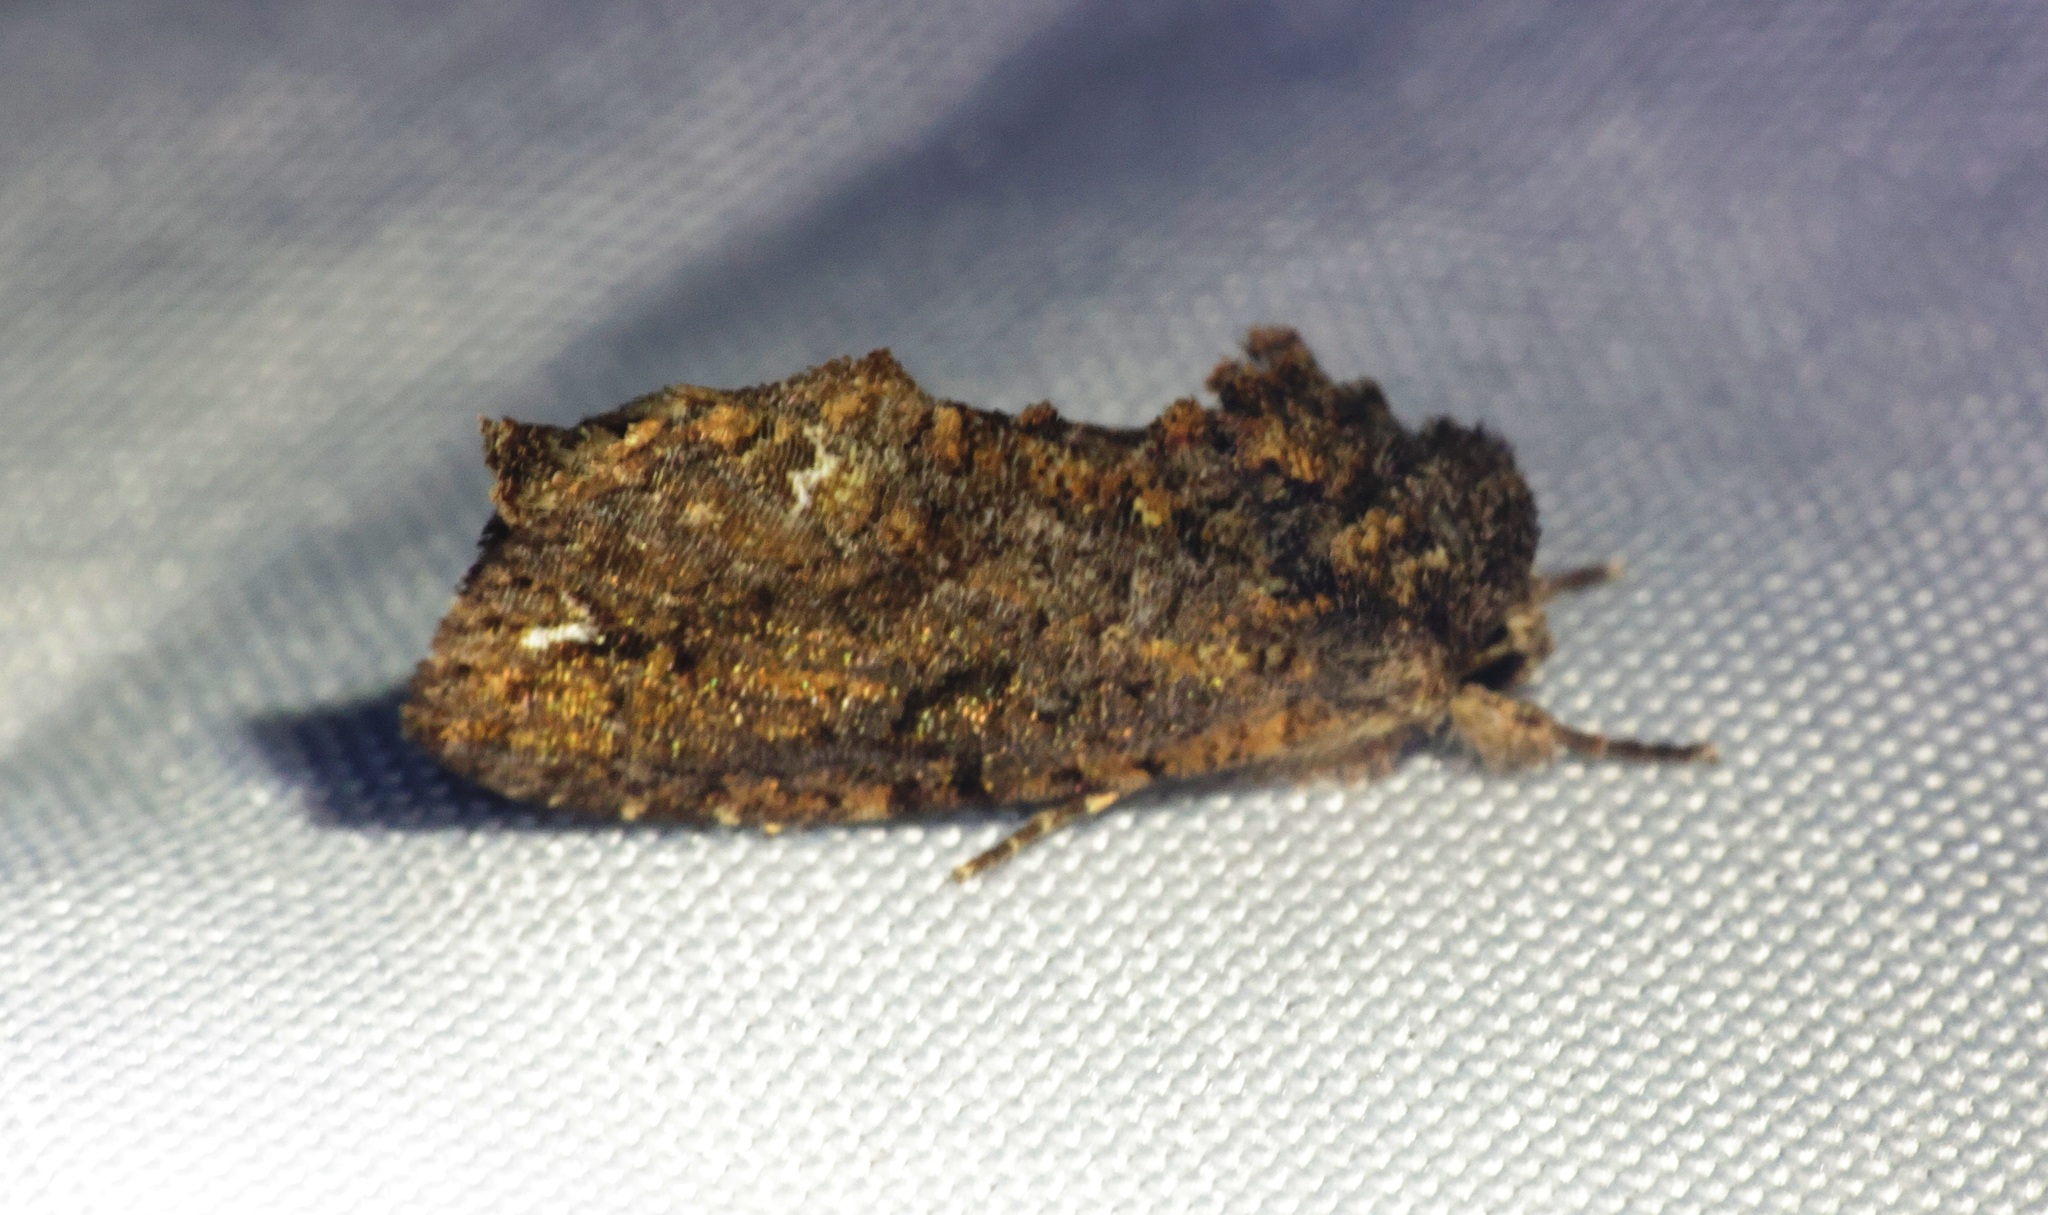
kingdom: Animalia
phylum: Arthropoda
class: Insecta
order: Lepidoptera
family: Noctuidae
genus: Paradiopa
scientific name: Paradiopa postfusca
